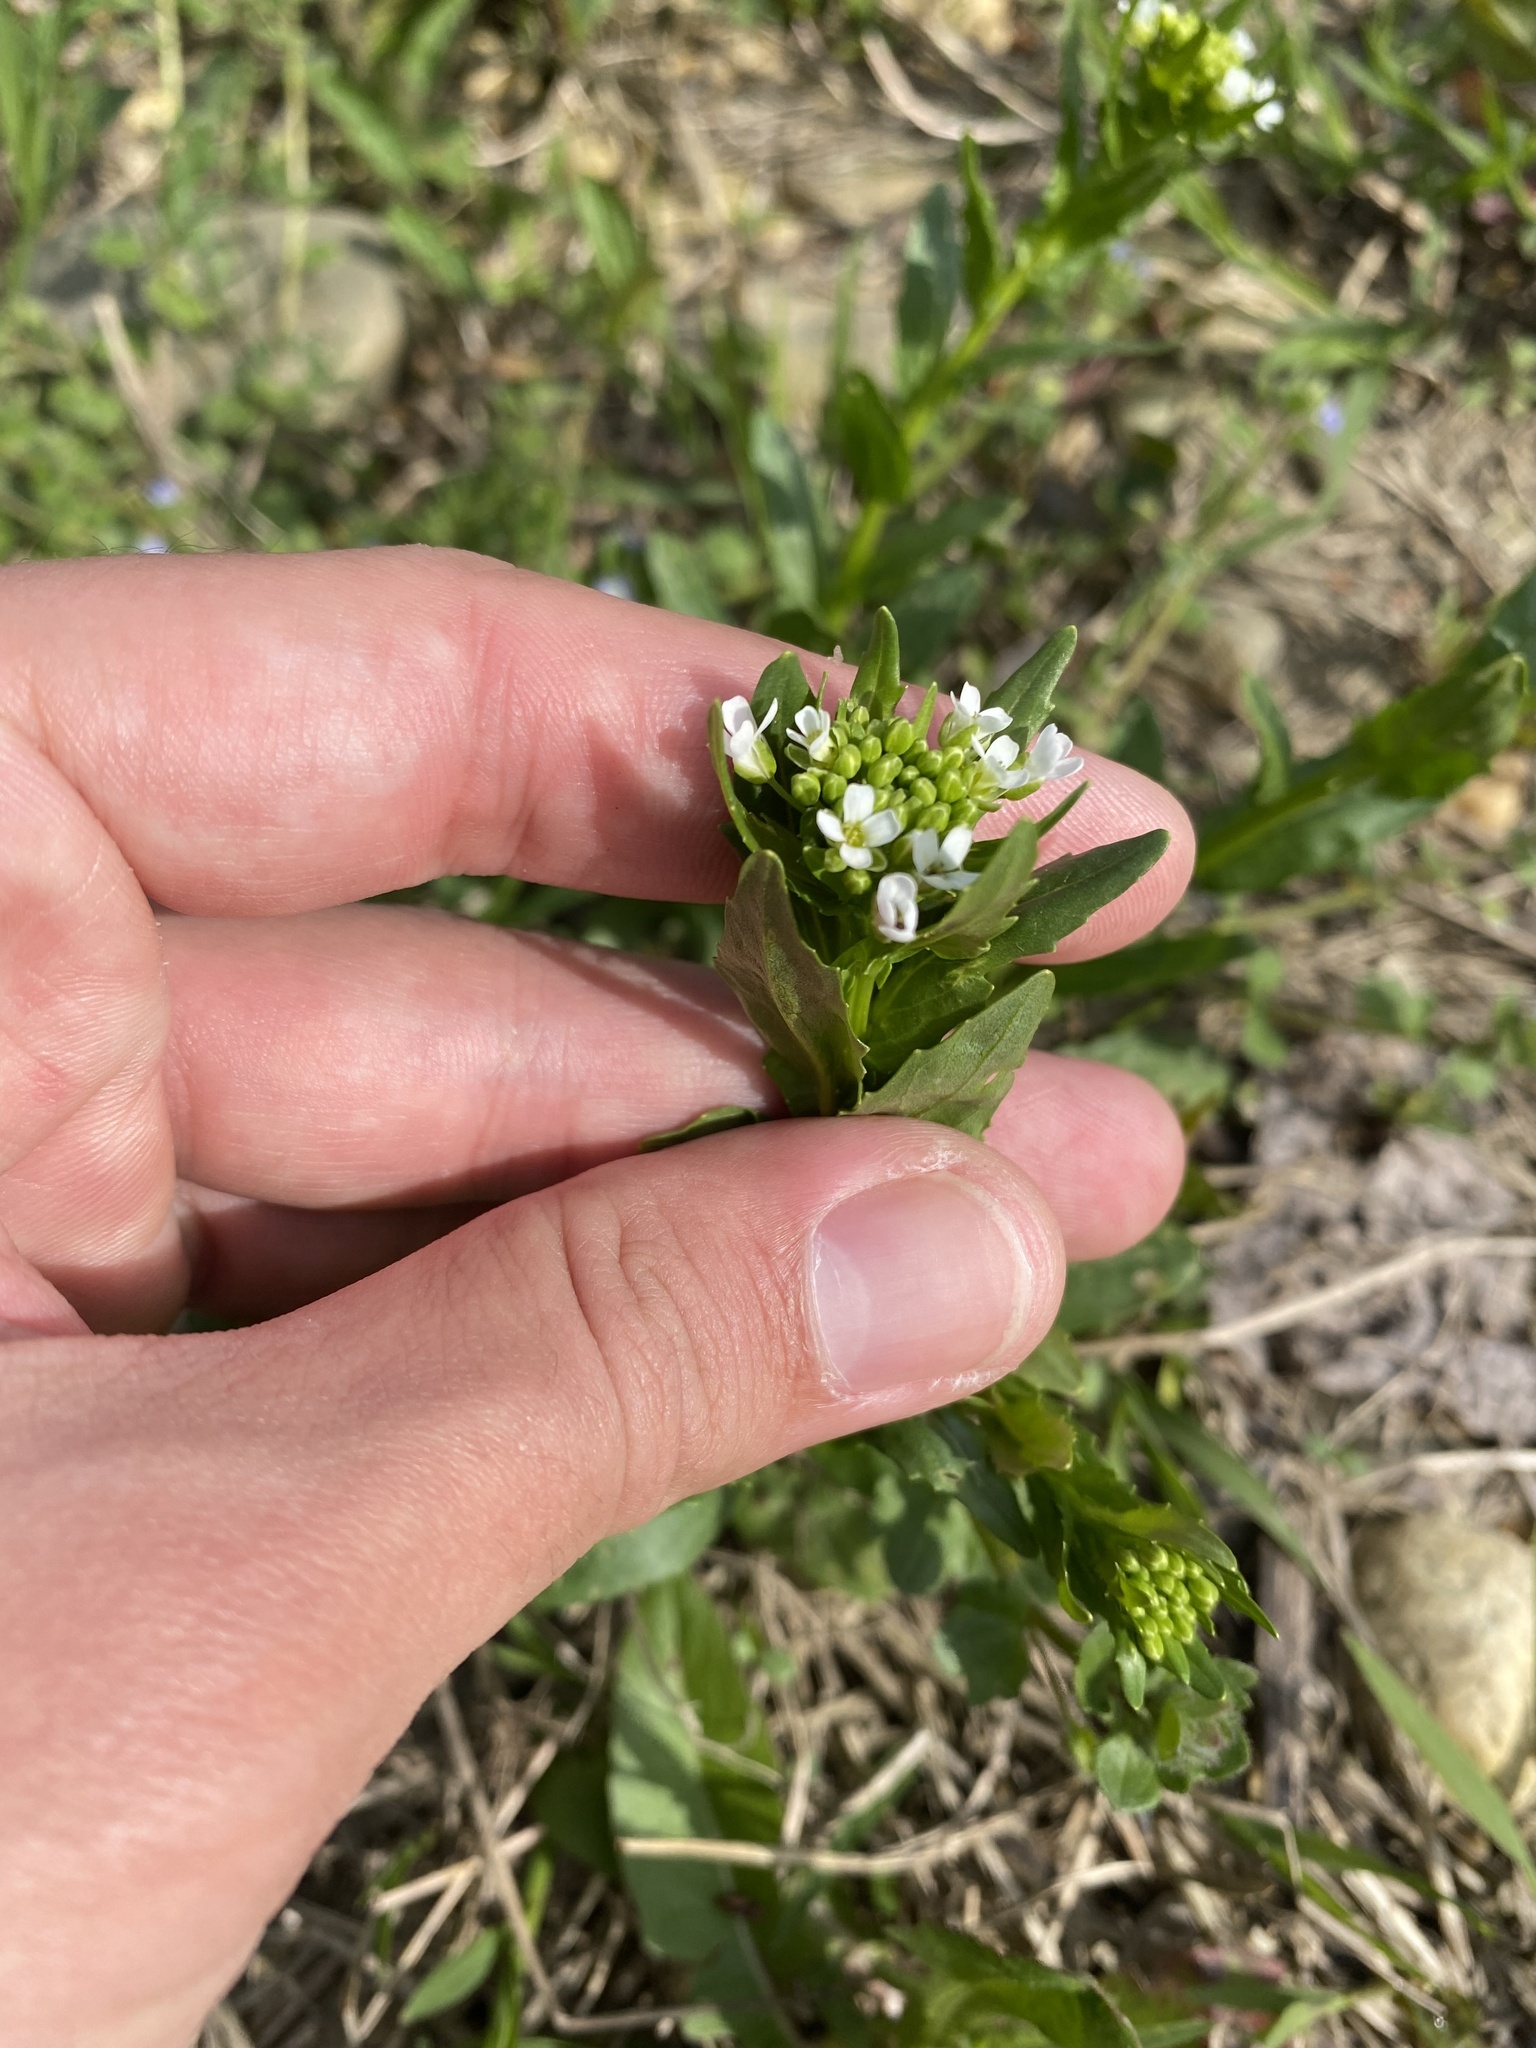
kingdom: Plantae
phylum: Tracheophyta
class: Magnoliopsida
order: Brassicales
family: Brassicaceae
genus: Thlaspi
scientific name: Thlaspi arvense
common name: Field pennycress
